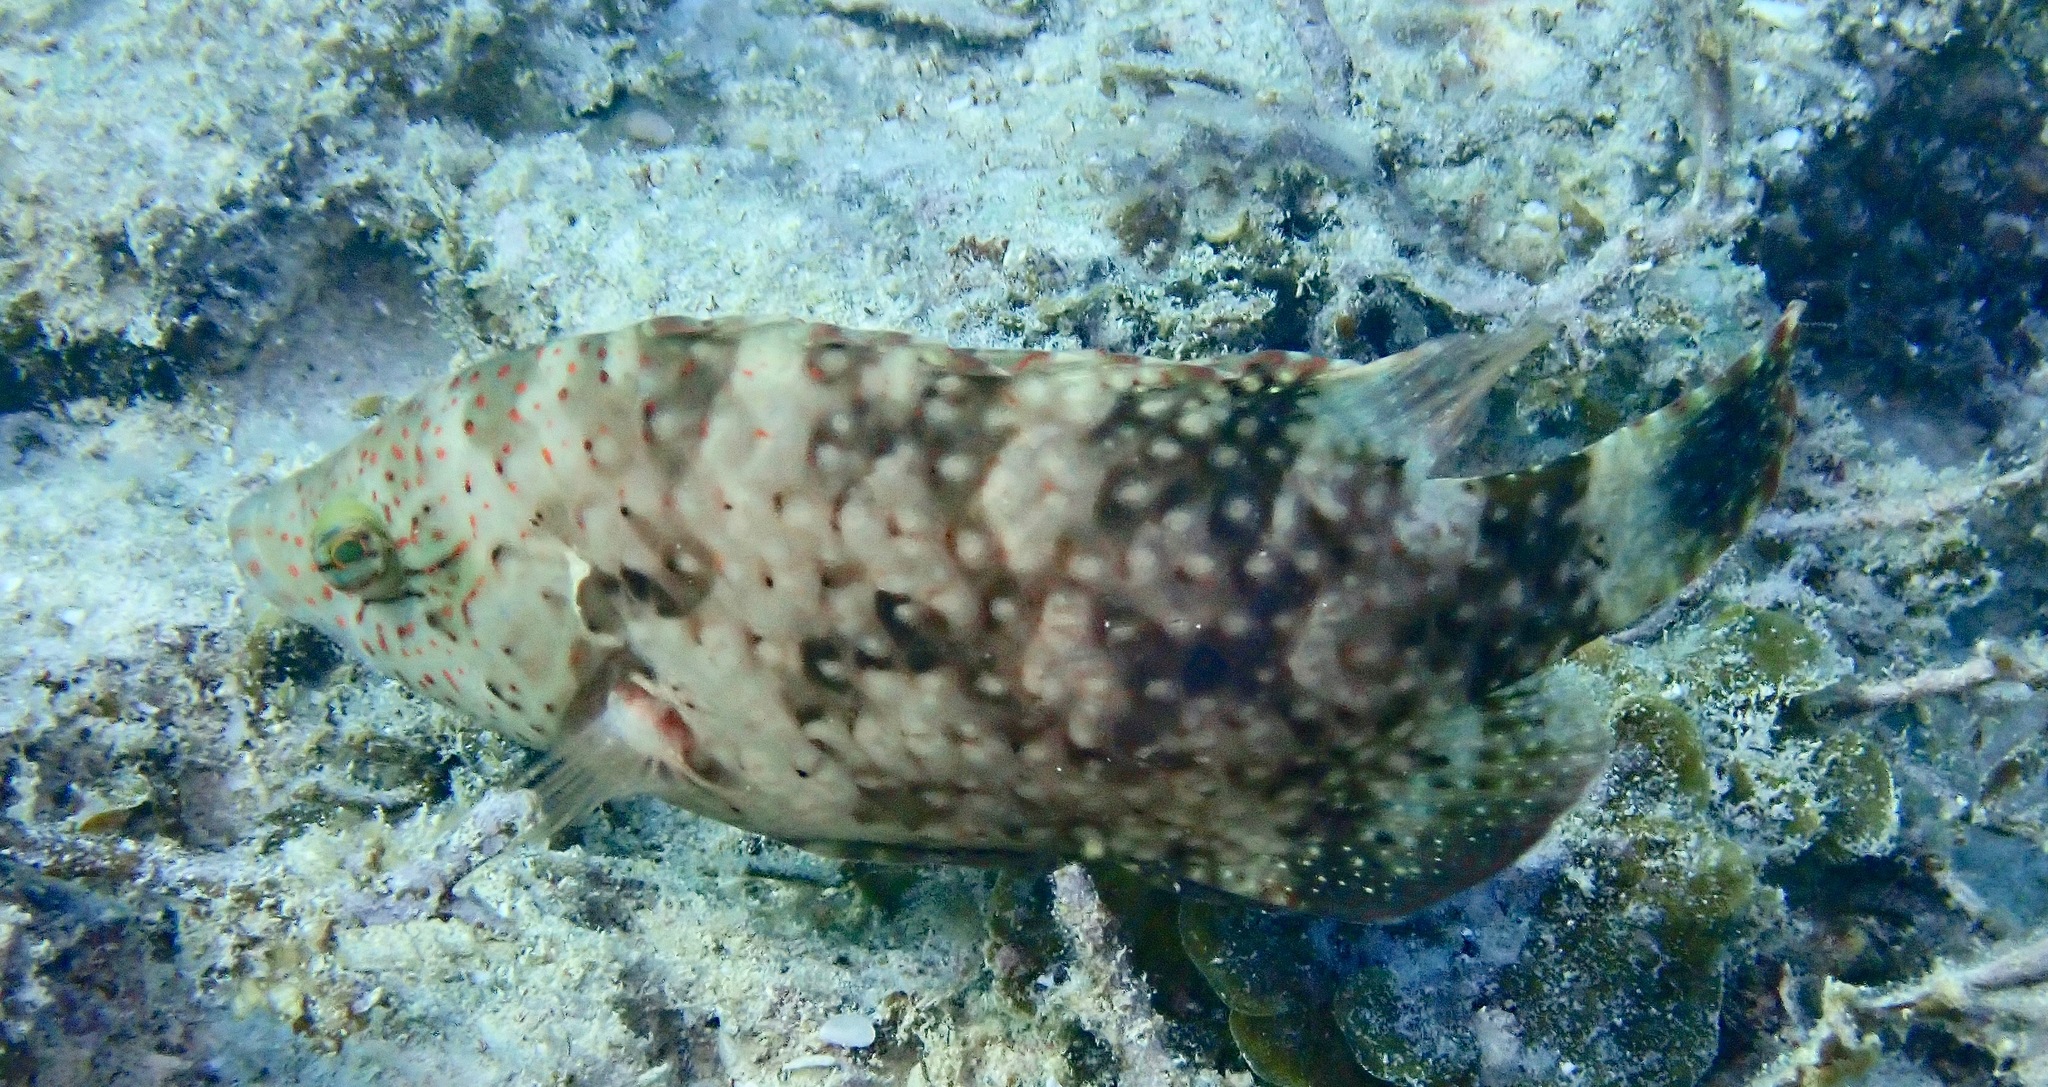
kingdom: Animalia
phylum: Chordata
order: Perciformes
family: Labridae
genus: Cheilinus
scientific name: Cheilinus chlorourus
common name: Floral wrasse
